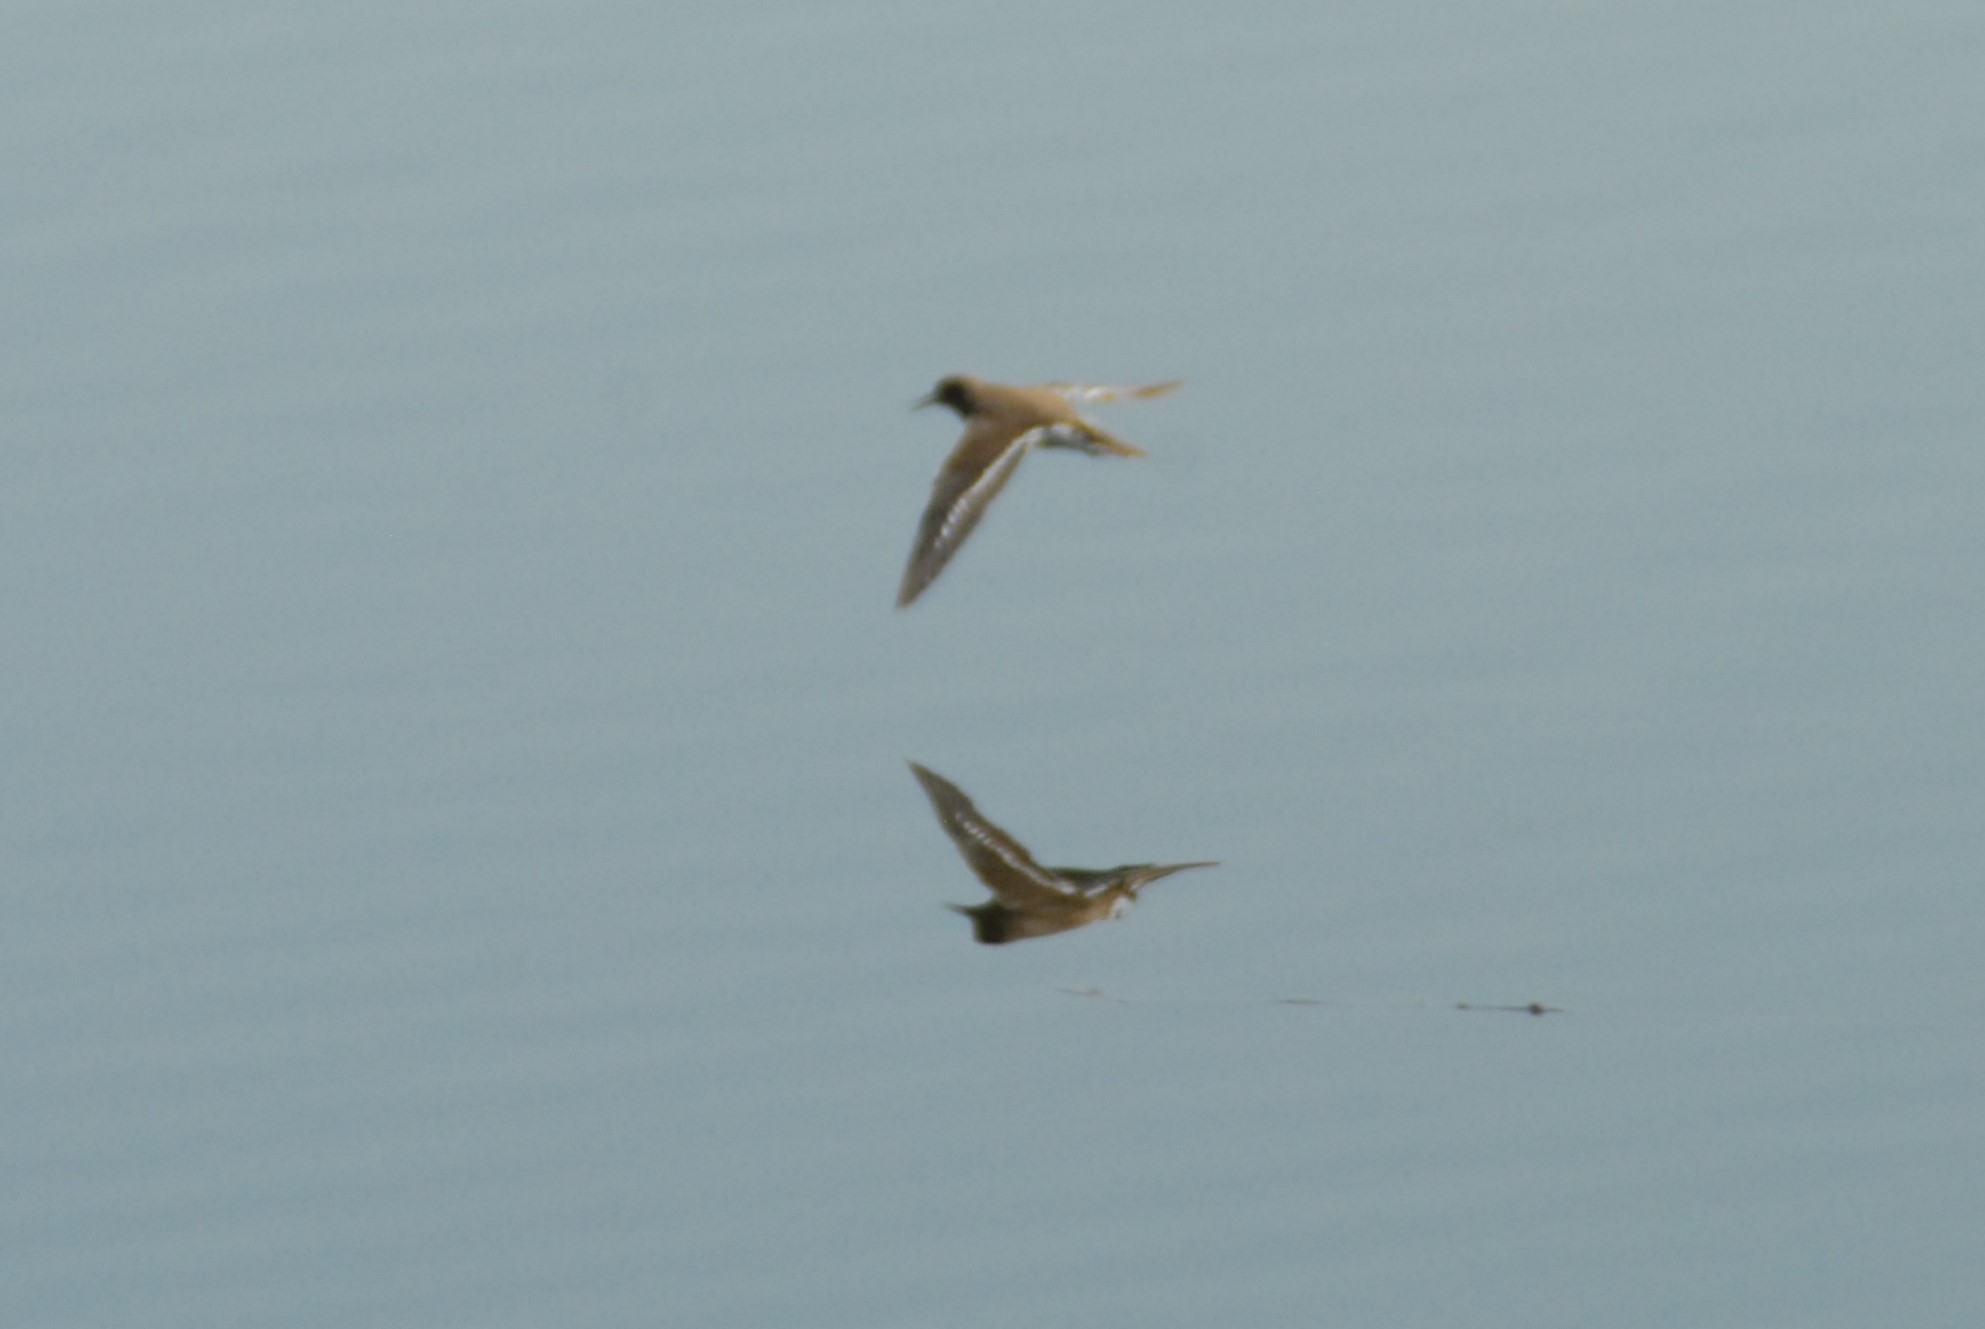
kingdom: Animalia
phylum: Chordata
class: Aves
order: Charadriiformes
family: Scolopacidae
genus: Actitis
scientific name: Actitis hypoleucos
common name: Common sandpiper
